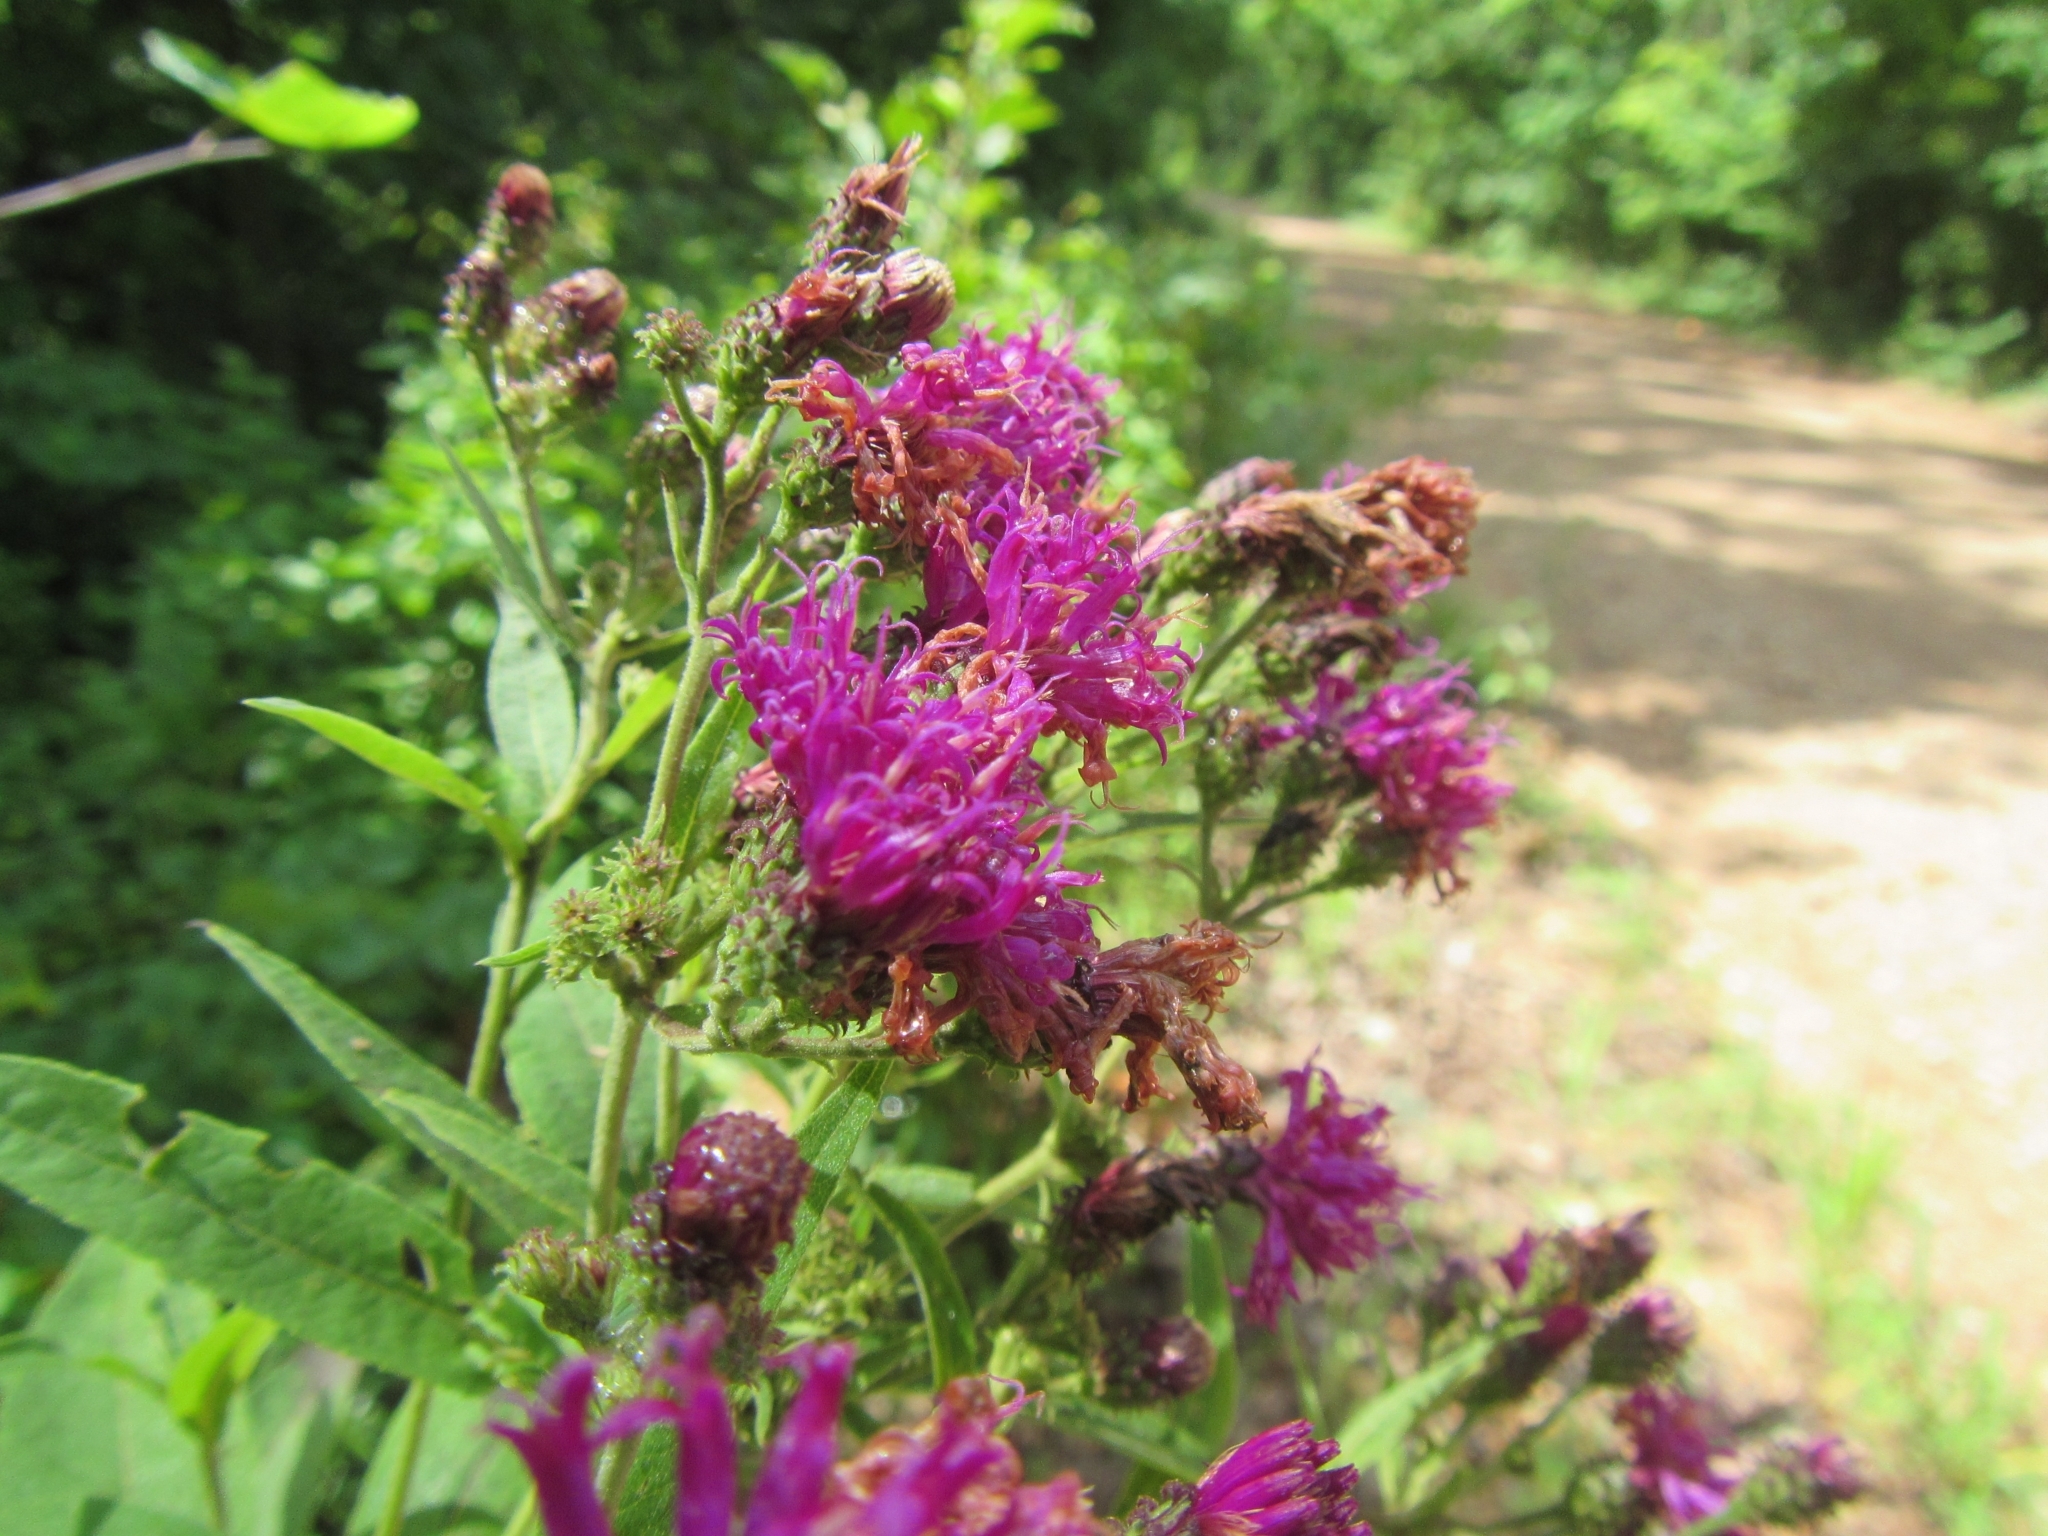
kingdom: Plantae
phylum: Tracheophyta
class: Magnoliopsida
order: Asterales
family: Asteraceae
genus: Vernonia
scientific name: Vernonia baldwinii
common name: Western ironweed
